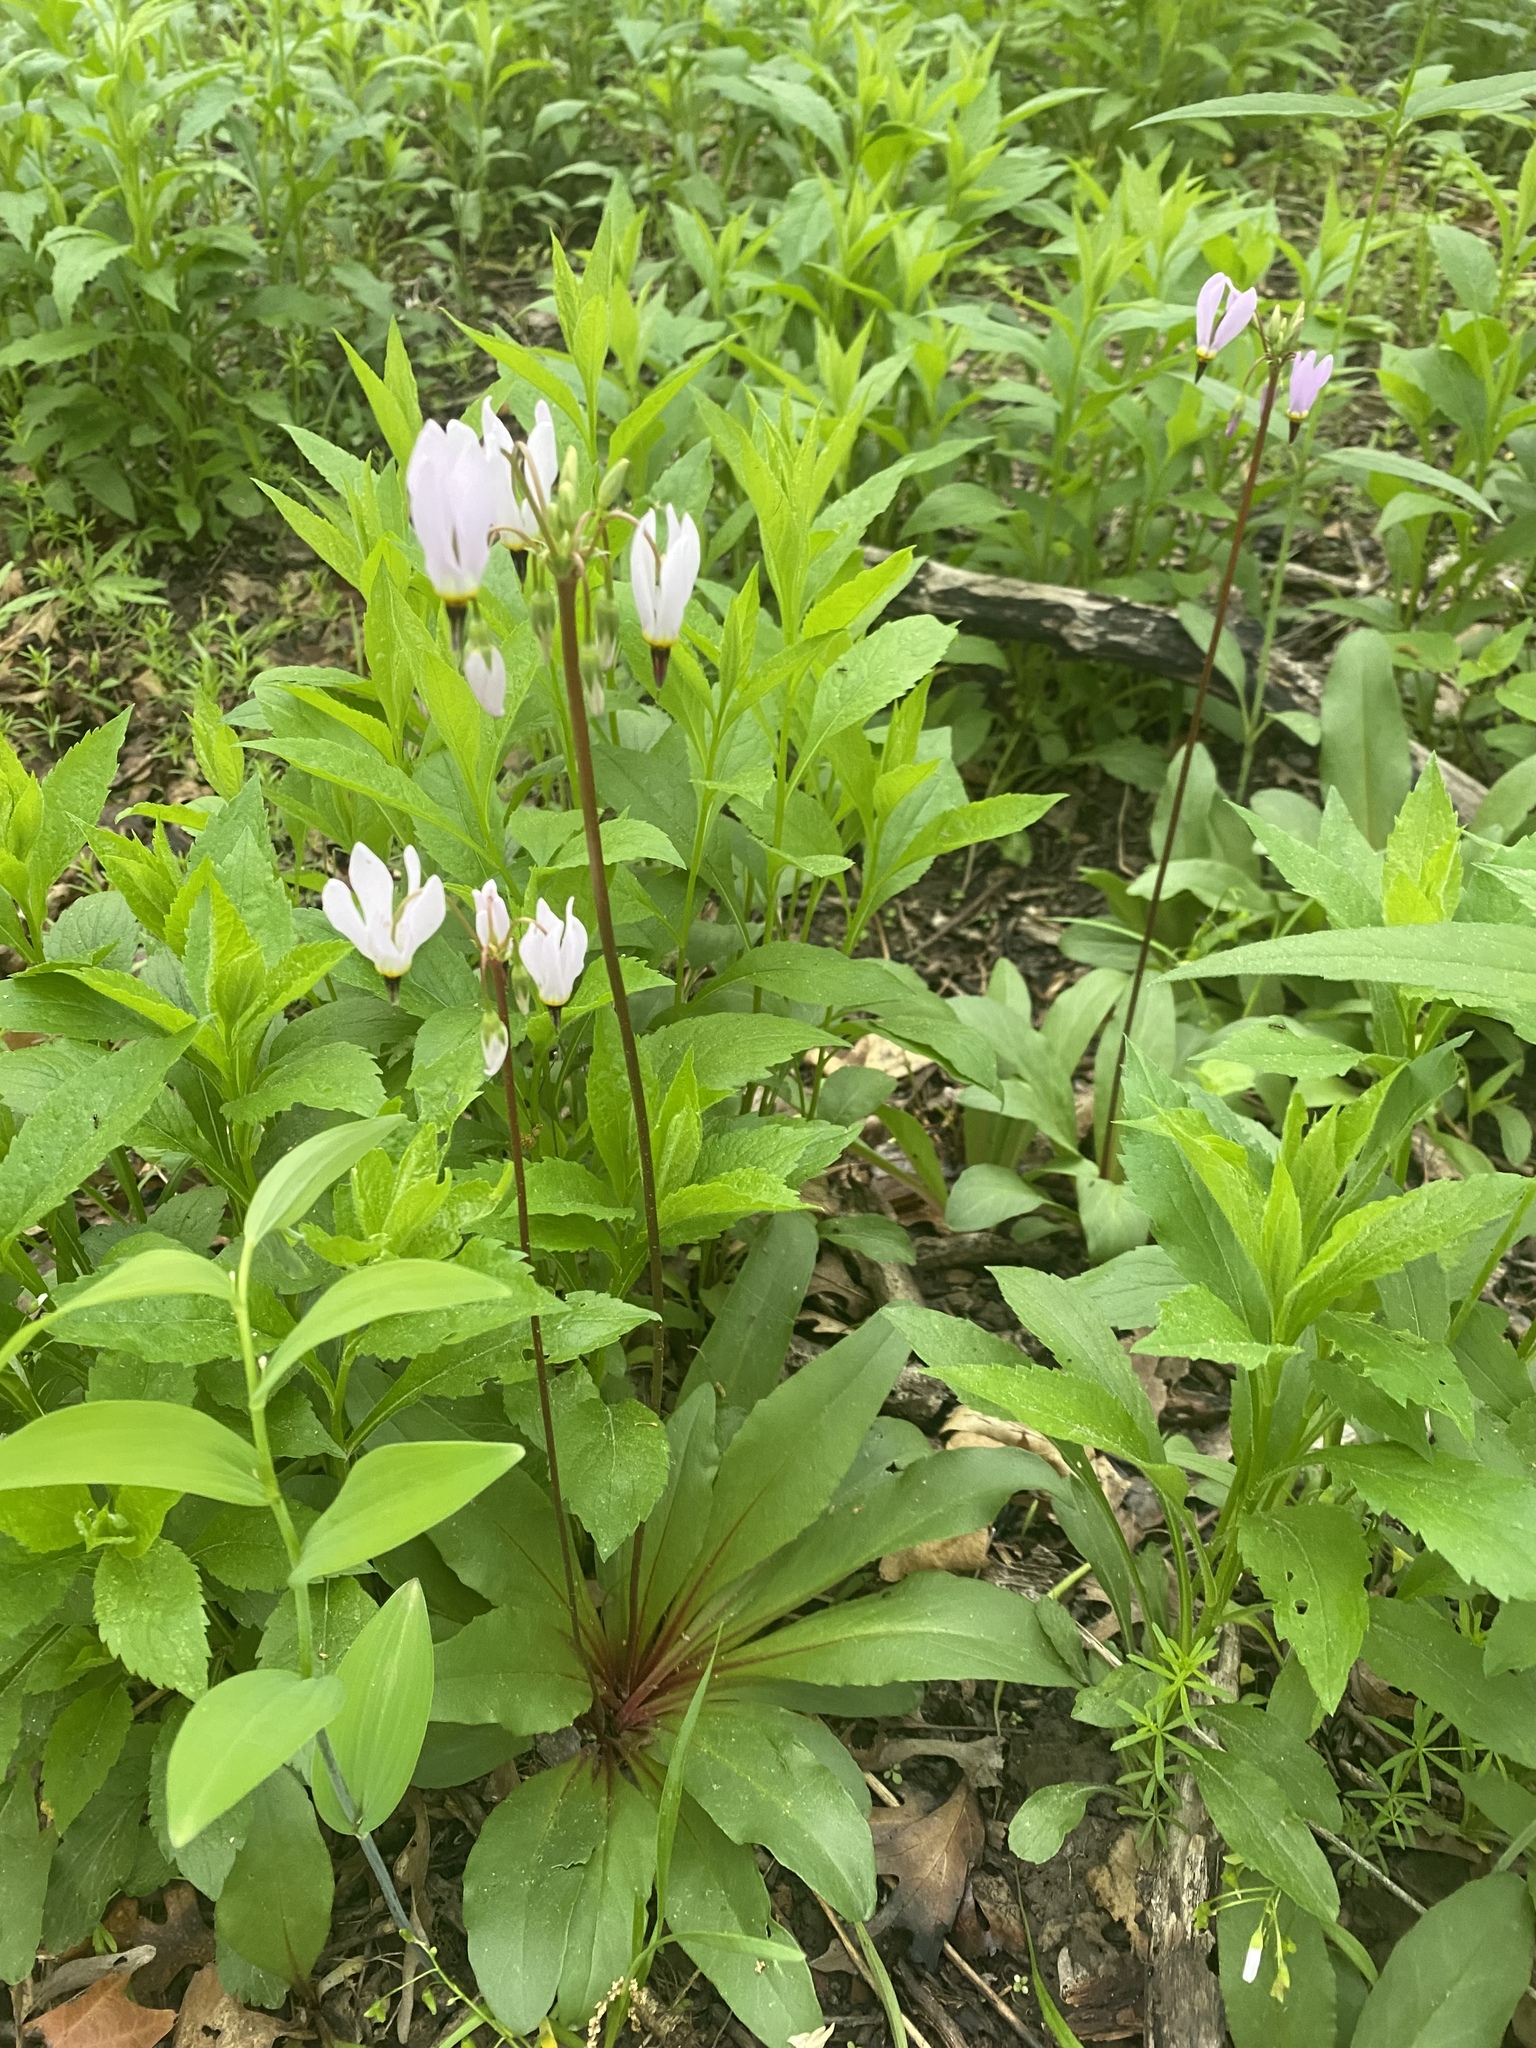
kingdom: Plantae
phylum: Tracheophyta
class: Magnoliopsida
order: Ericales
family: Primulaceae
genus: Dodecatheon
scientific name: Dodecatheon meadia
